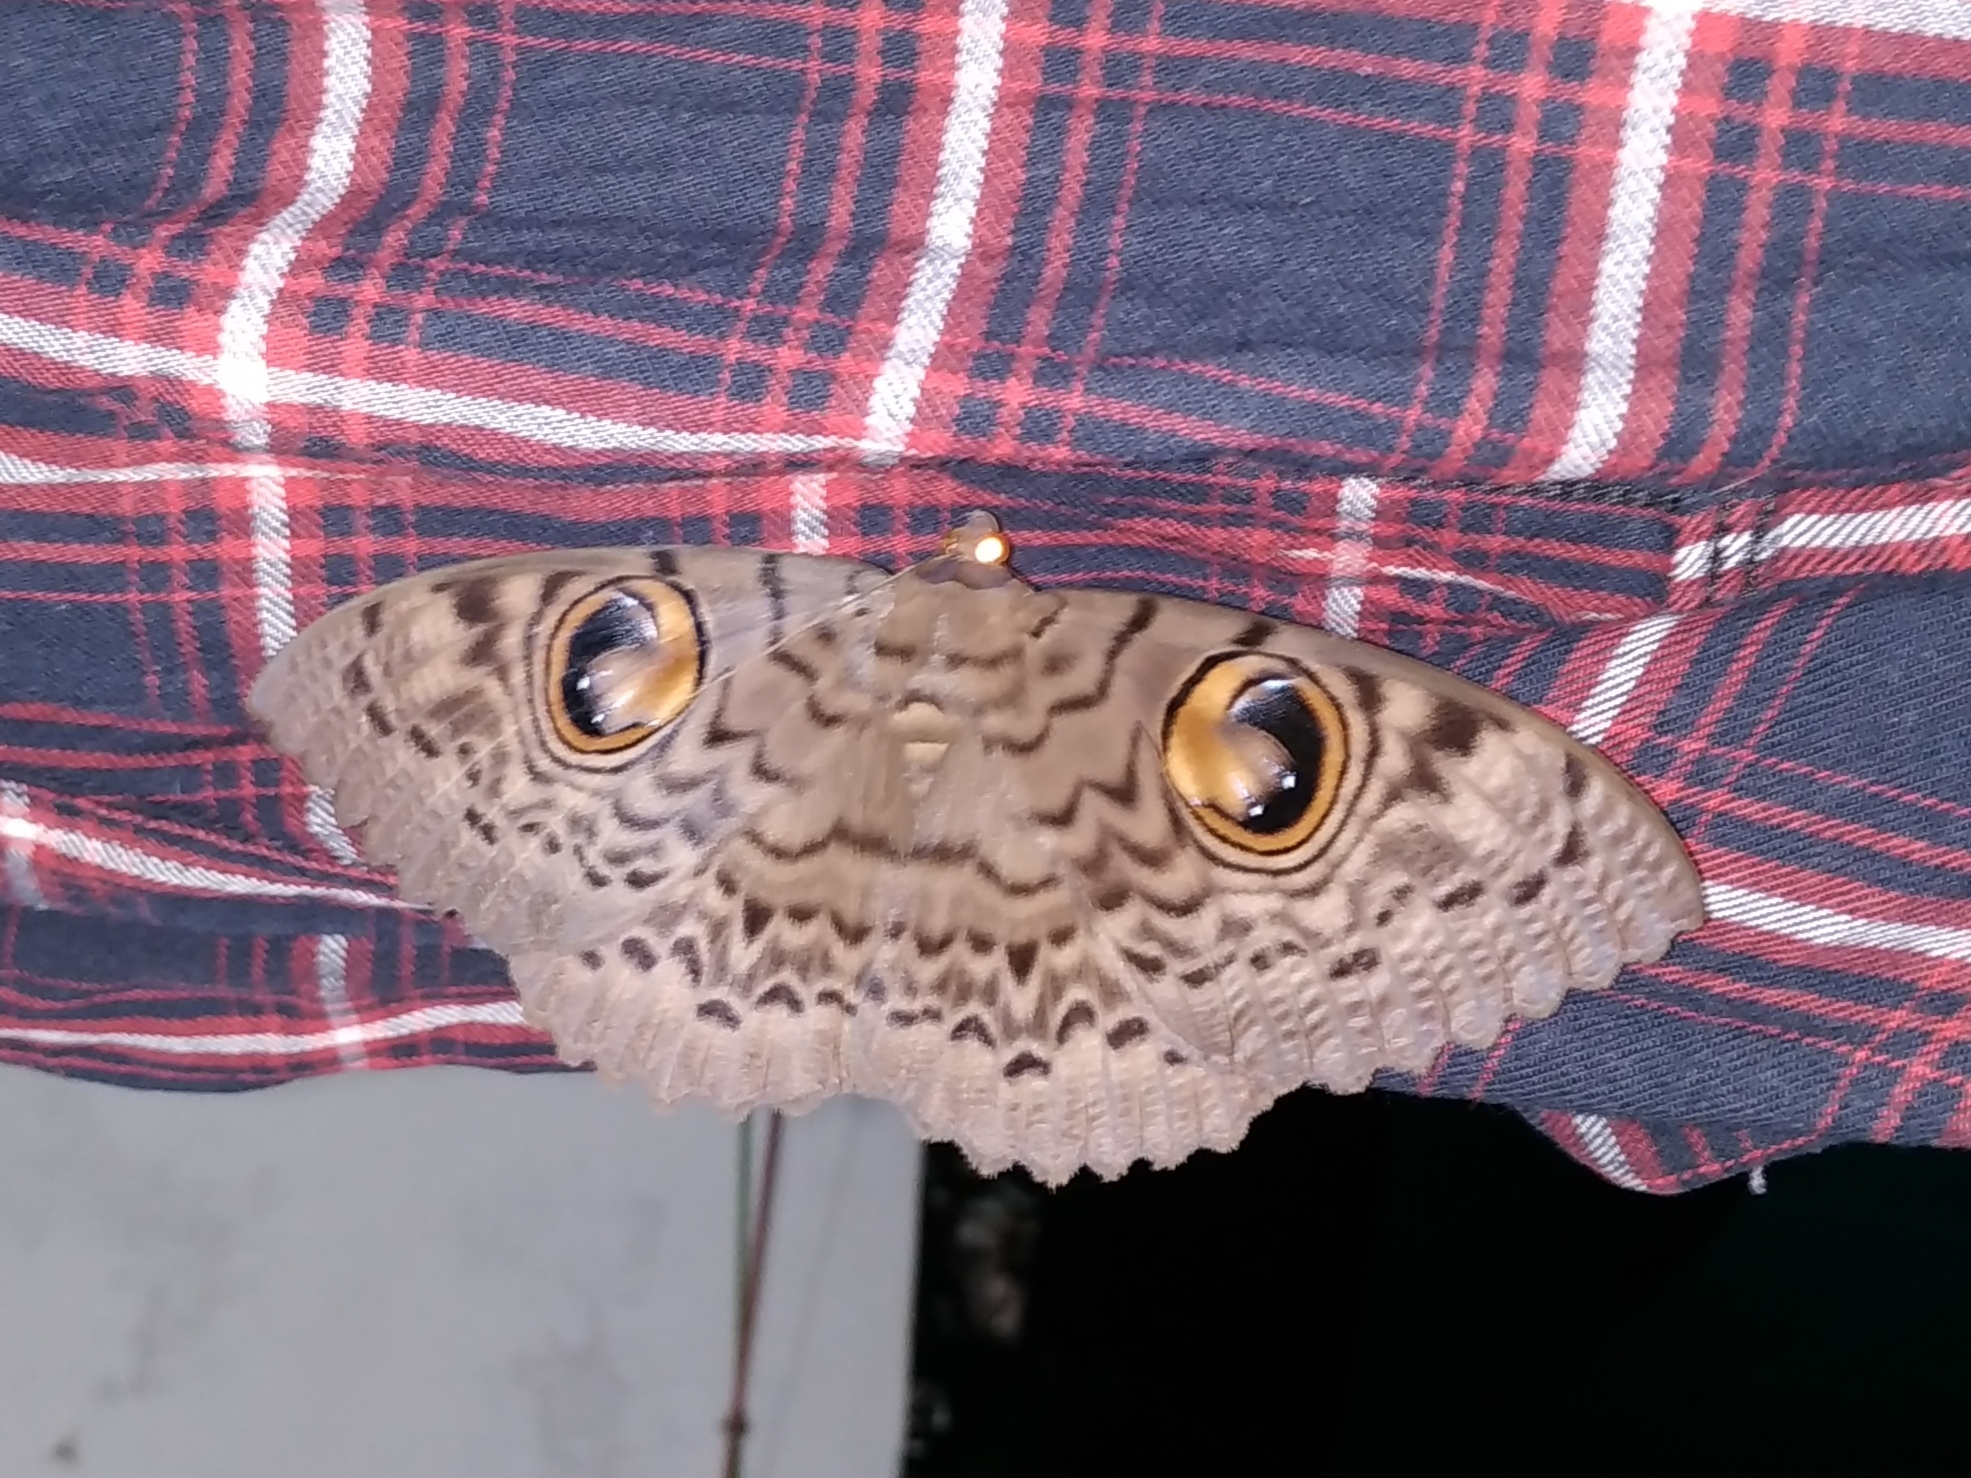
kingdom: Animalia
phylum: Arthropoda
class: Insecta
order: Lepidoptera
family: Erebidae
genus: Erebus
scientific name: Erebus macrops
